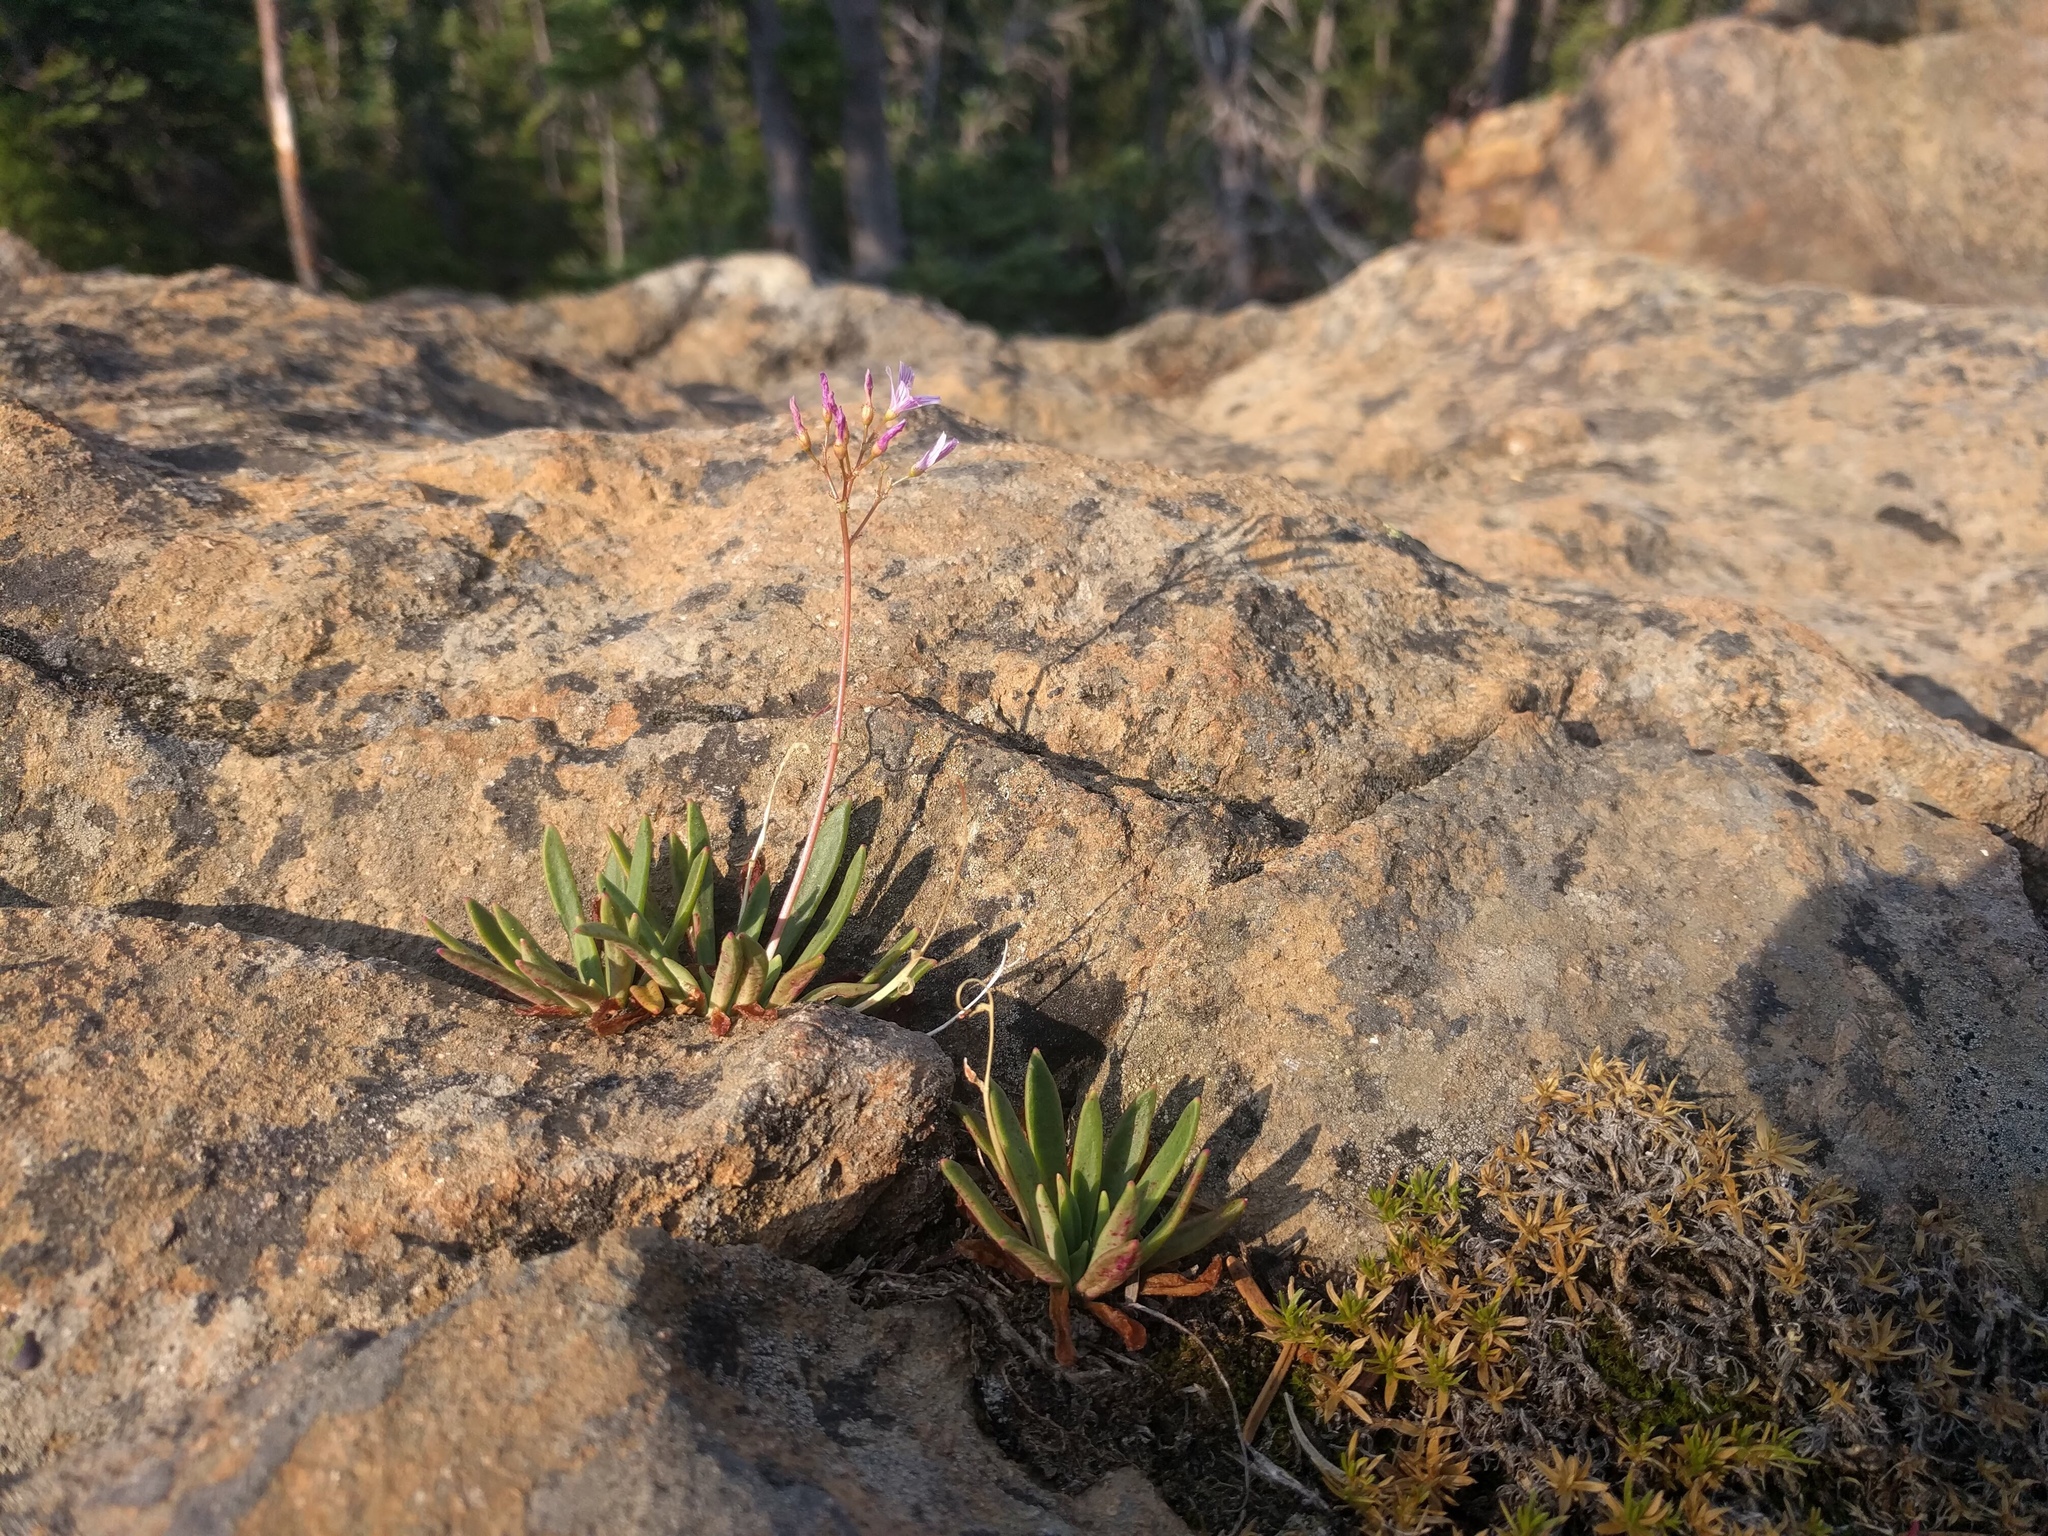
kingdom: Plantae
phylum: Tracheophyta
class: Magnoliopsida
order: Caryophyllales
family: Montiaceae
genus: Lewisia
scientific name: Lewisia columbiana
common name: Columbia lewisia
